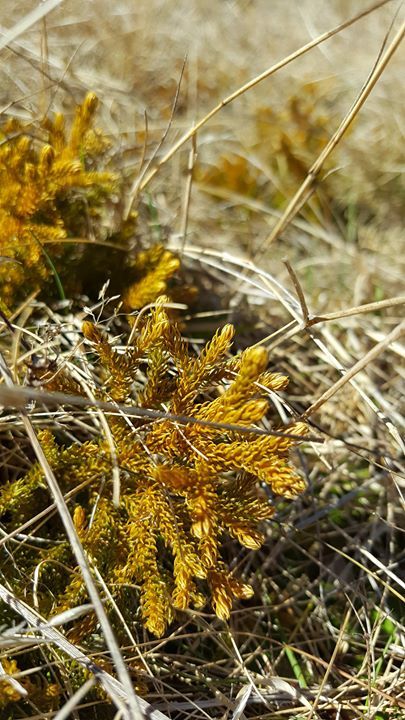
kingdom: Plantae
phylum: Tracheophyta
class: Lycopodiopsida
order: Lycopodiales
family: Lycopodiaceae
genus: Austrolycopodium
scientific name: Austrolycopodium fastigiatum
